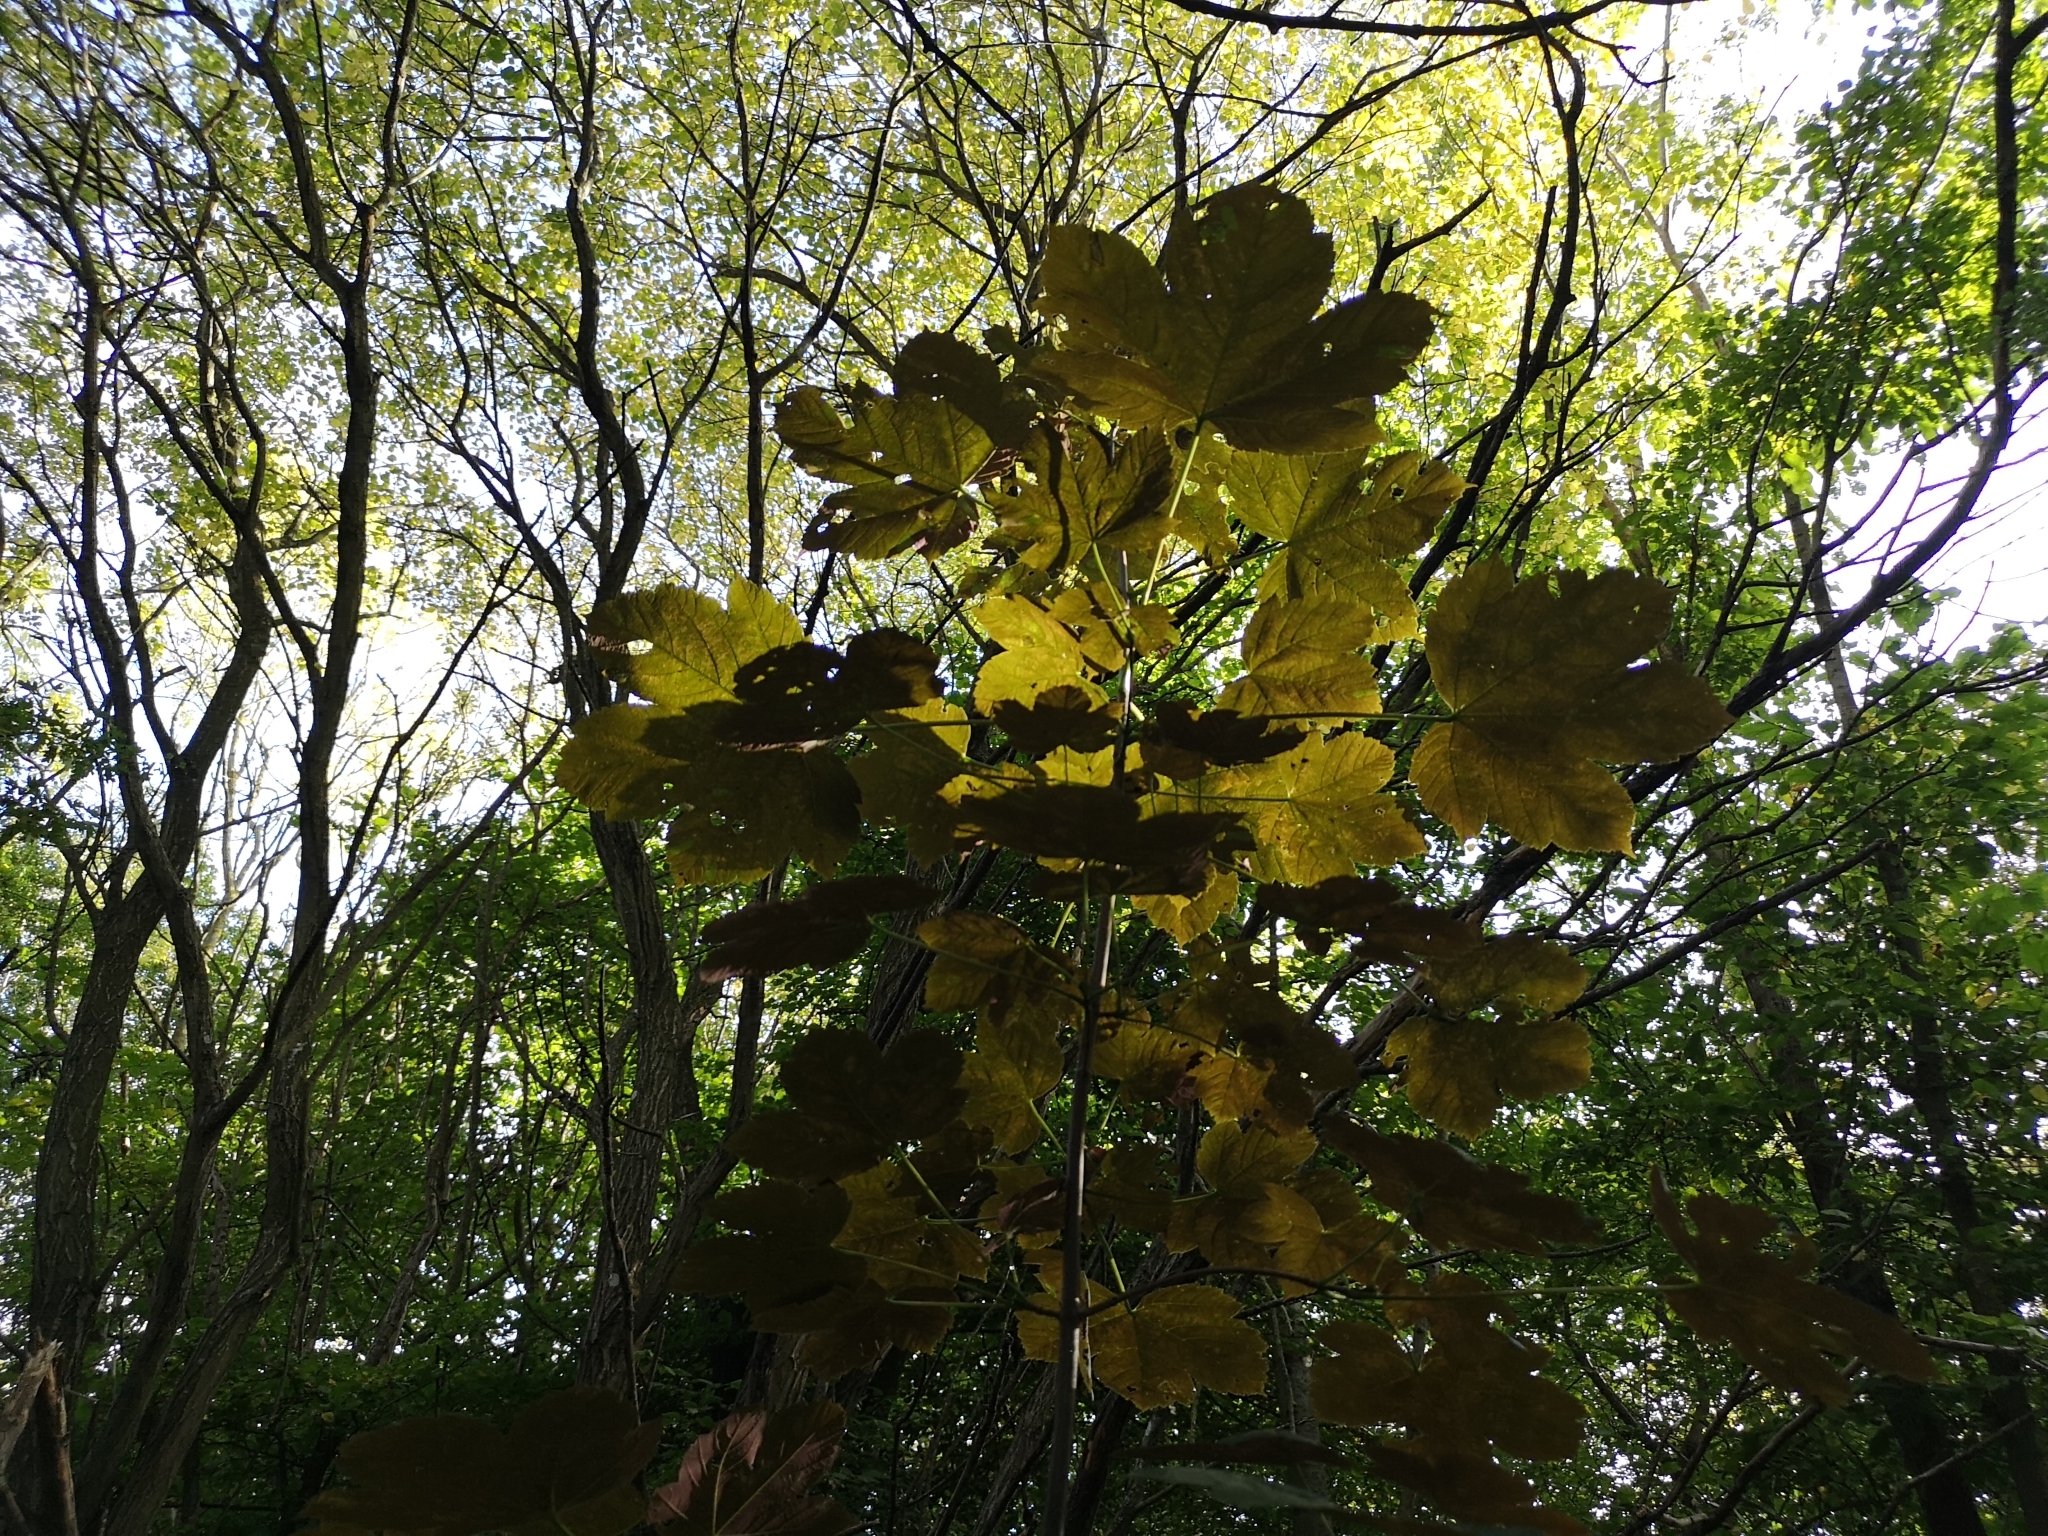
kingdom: Plantae
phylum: Tracheophyta
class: Magnoliopsida
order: Sapindales
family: Sapindaceae
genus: Acer
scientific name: Acer pseudoplatanus
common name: Sycamore
